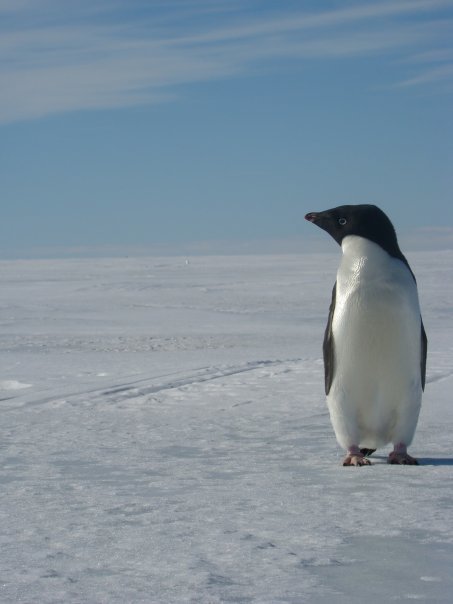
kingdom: Animalia
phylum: Chordata
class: Aves
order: Sphenisciformes
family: Spheniscidae
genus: Pygoscelis
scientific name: Pygoscelis adeliae
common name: Adelie penguin
